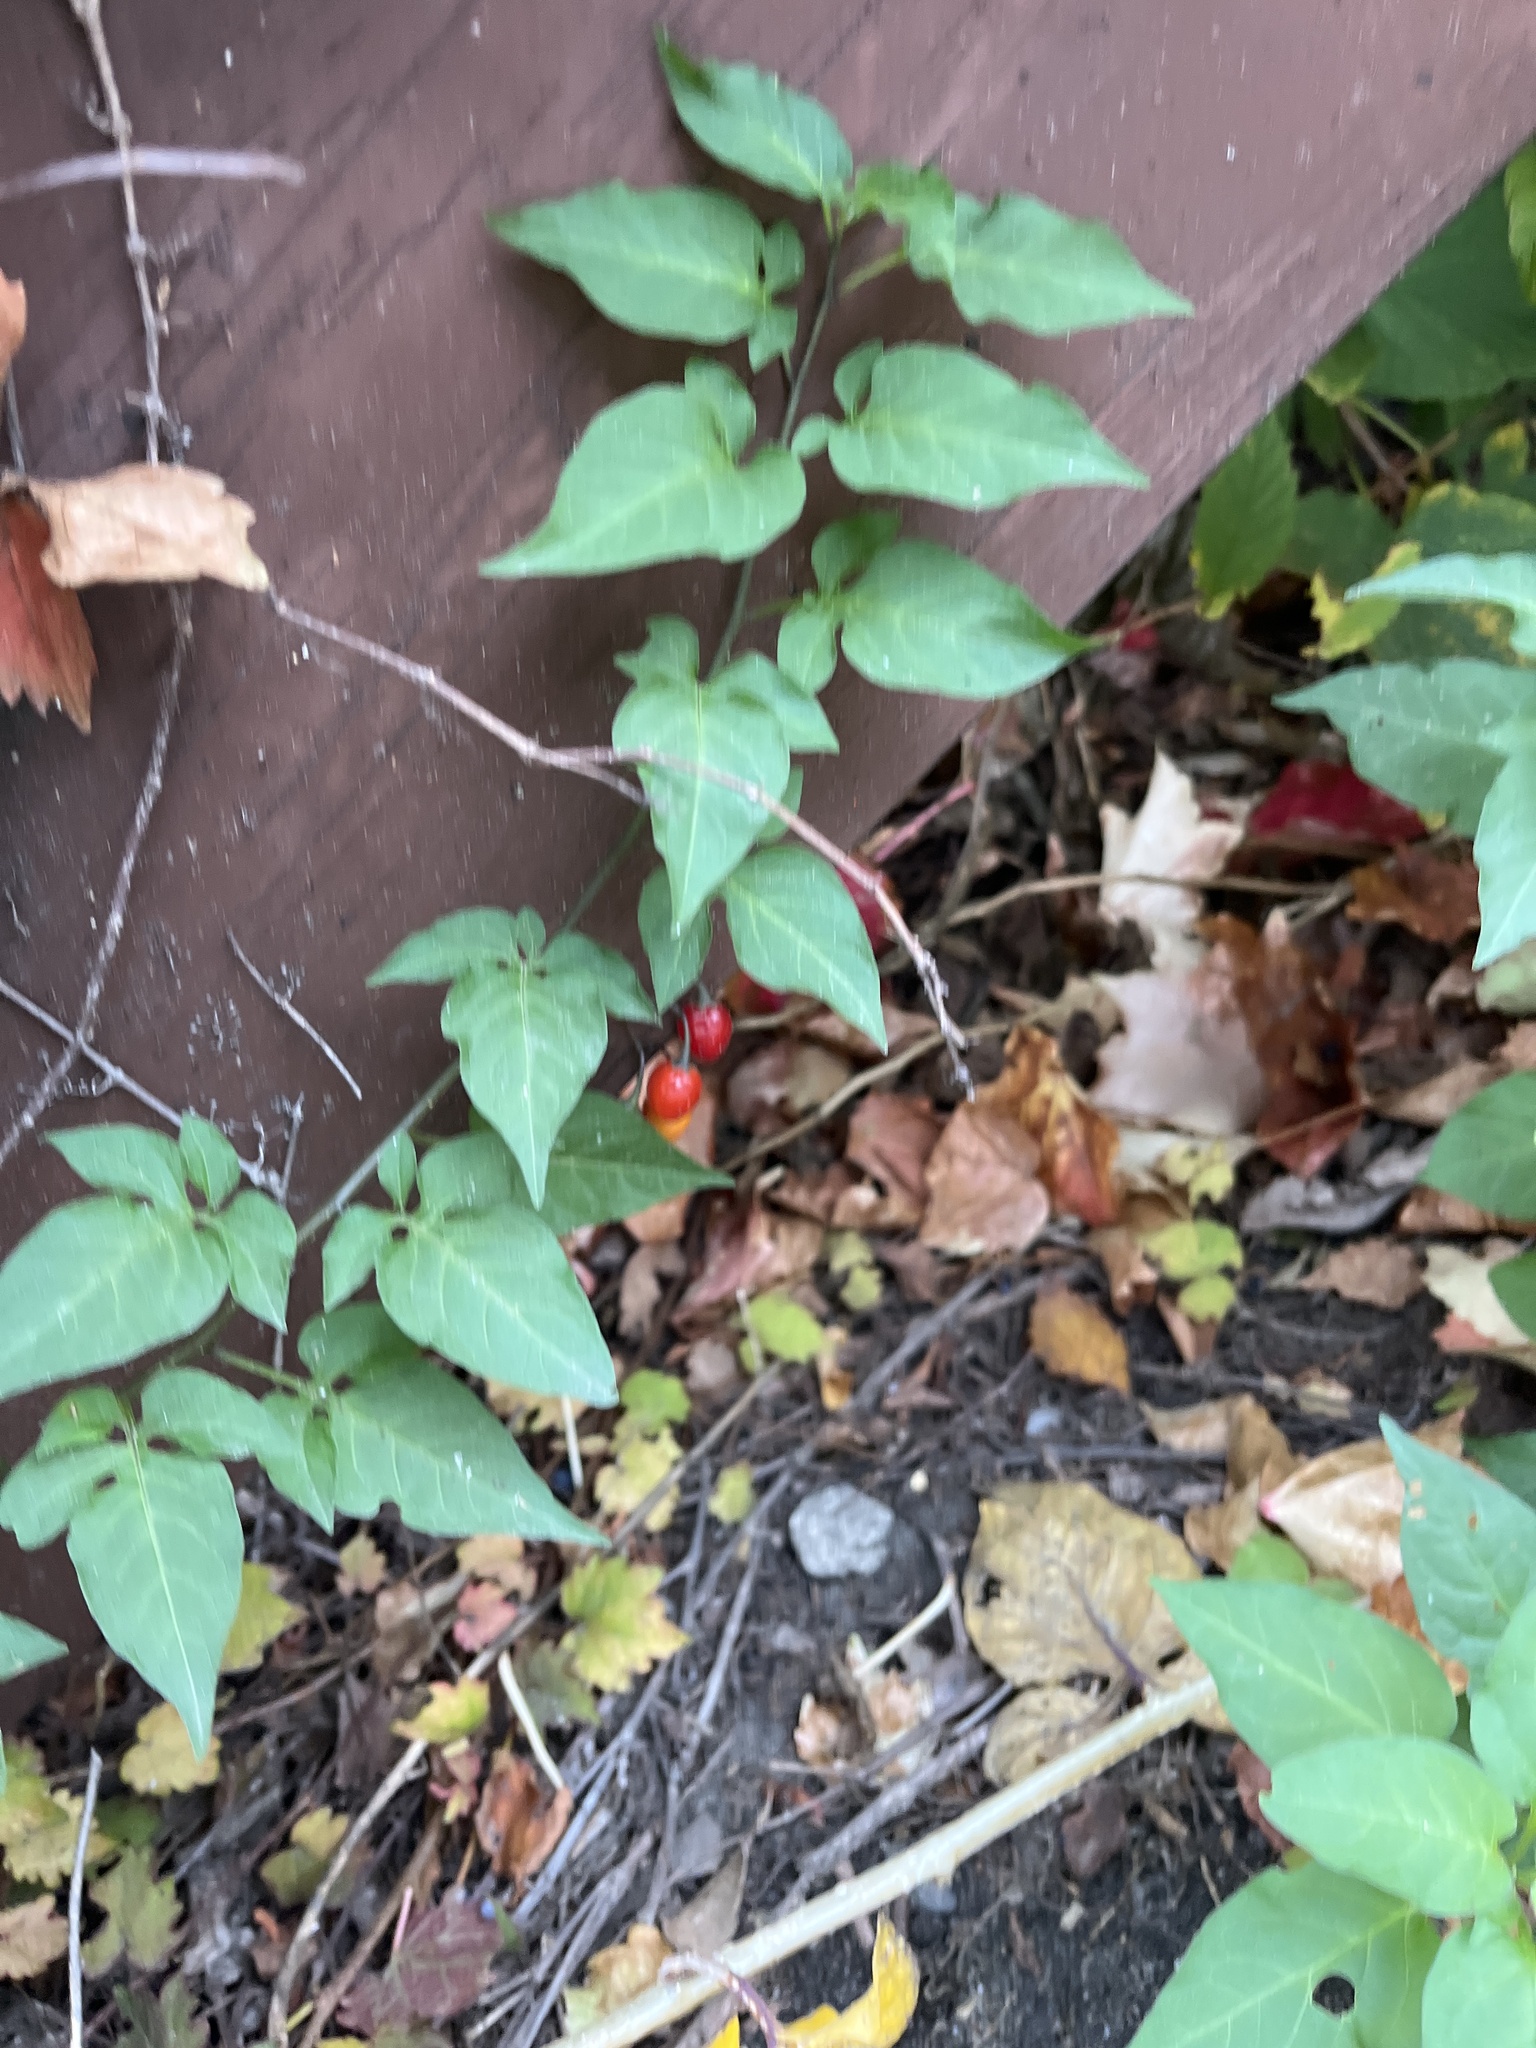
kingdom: Plantae
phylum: Tracheophyta
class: Magnoliopsida
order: Solanales
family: Solanaceae
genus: Solanum
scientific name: Solanum dulcamara
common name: Climbing nightshade
